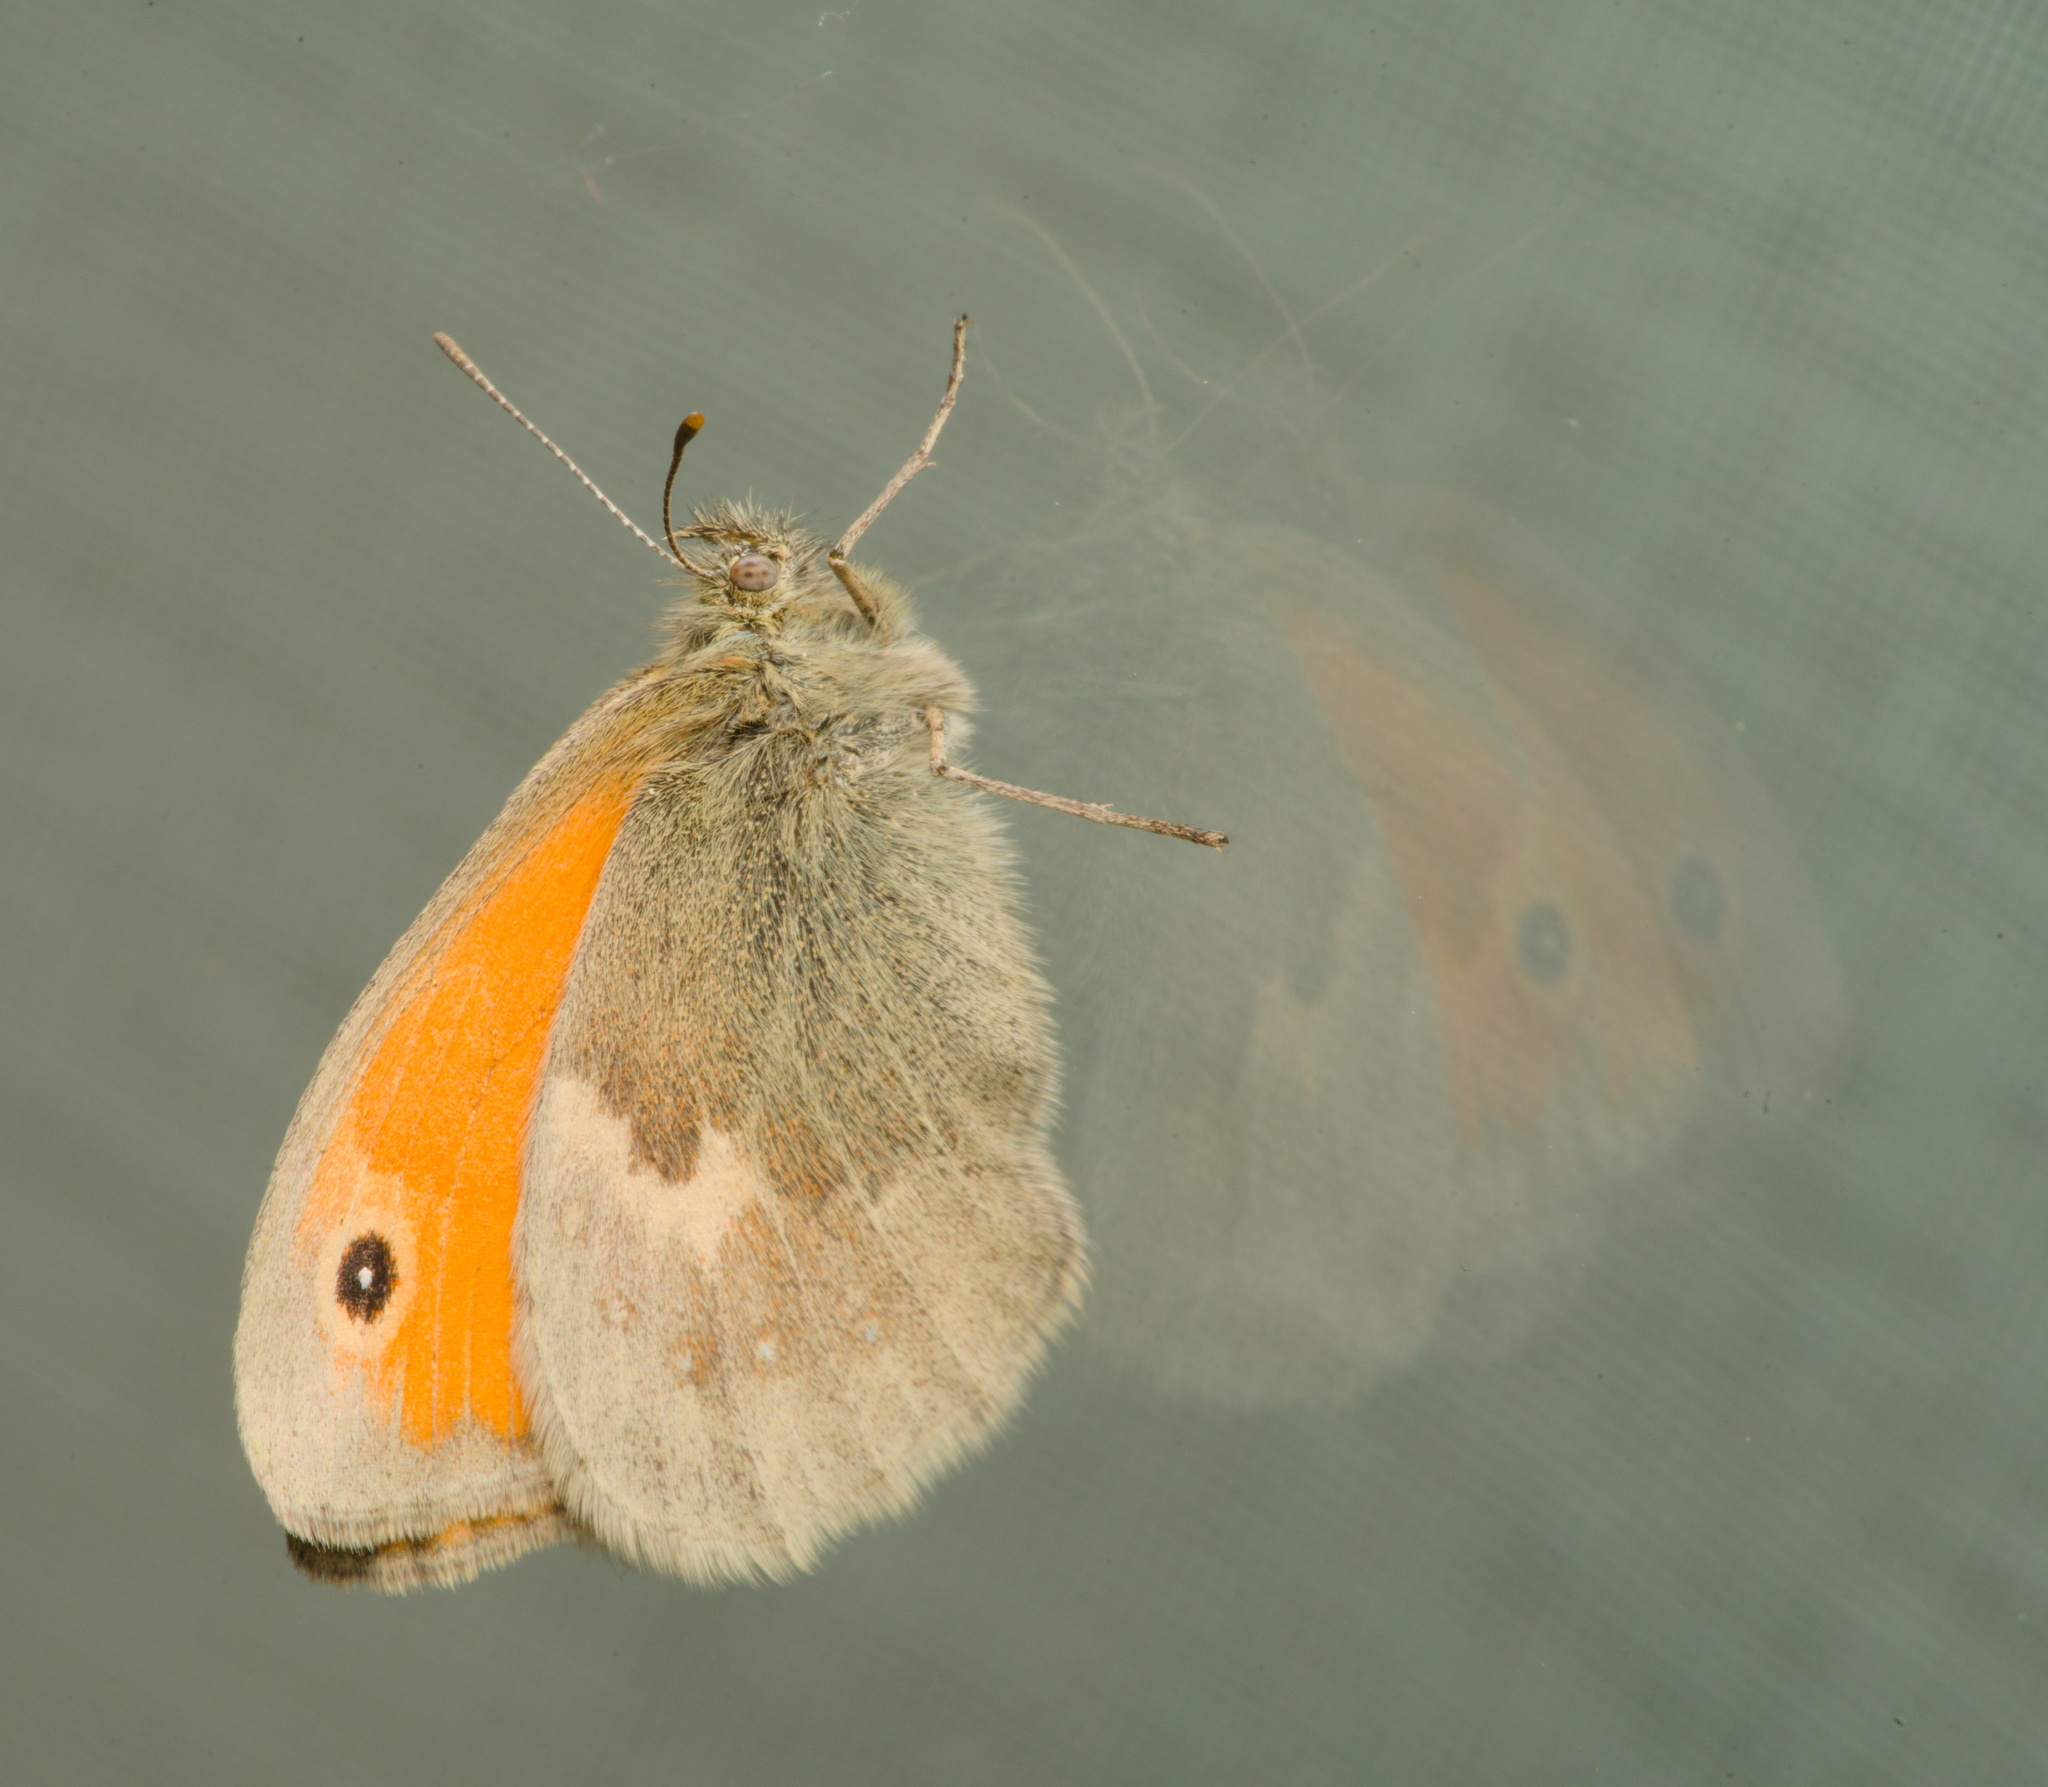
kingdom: Animalia
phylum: Arthropoda
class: Insecta
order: Lepidoptera
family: Nymphalidae
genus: Coenonympha
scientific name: Coenonympha pamphilus
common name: Small heath
